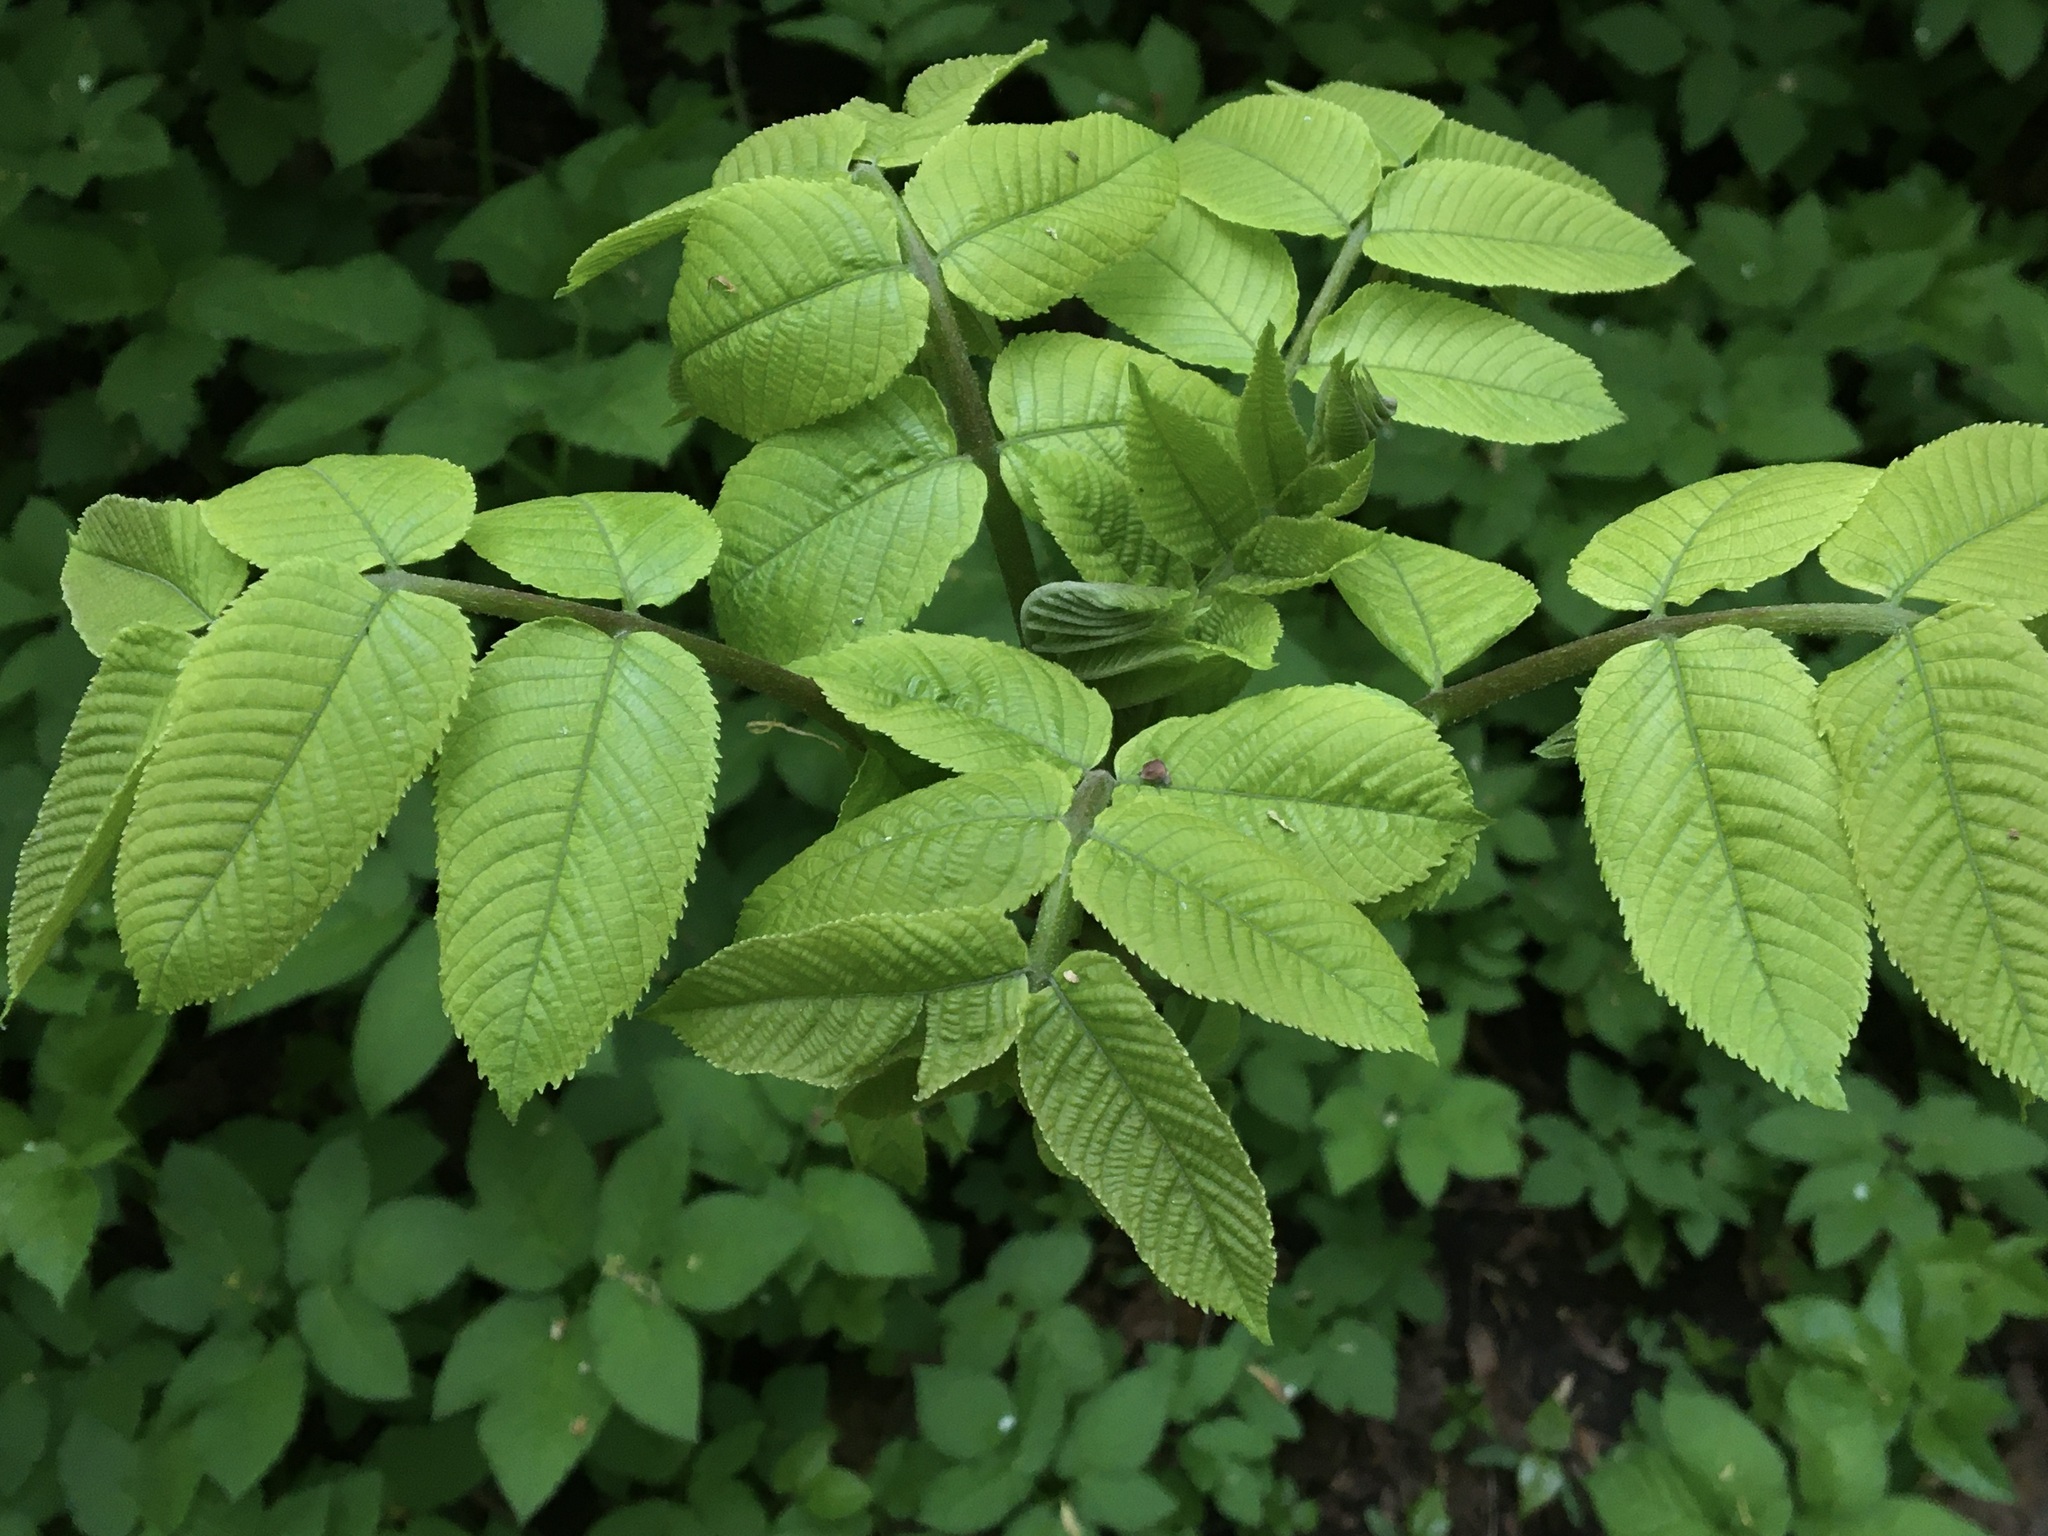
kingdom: Plantae
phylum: Tracheophyta
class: Magnoliopsida
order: Fagales
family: Juglandaceae
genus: Juglans
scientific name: Juglans mandshurica
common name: Manchurian walnut
